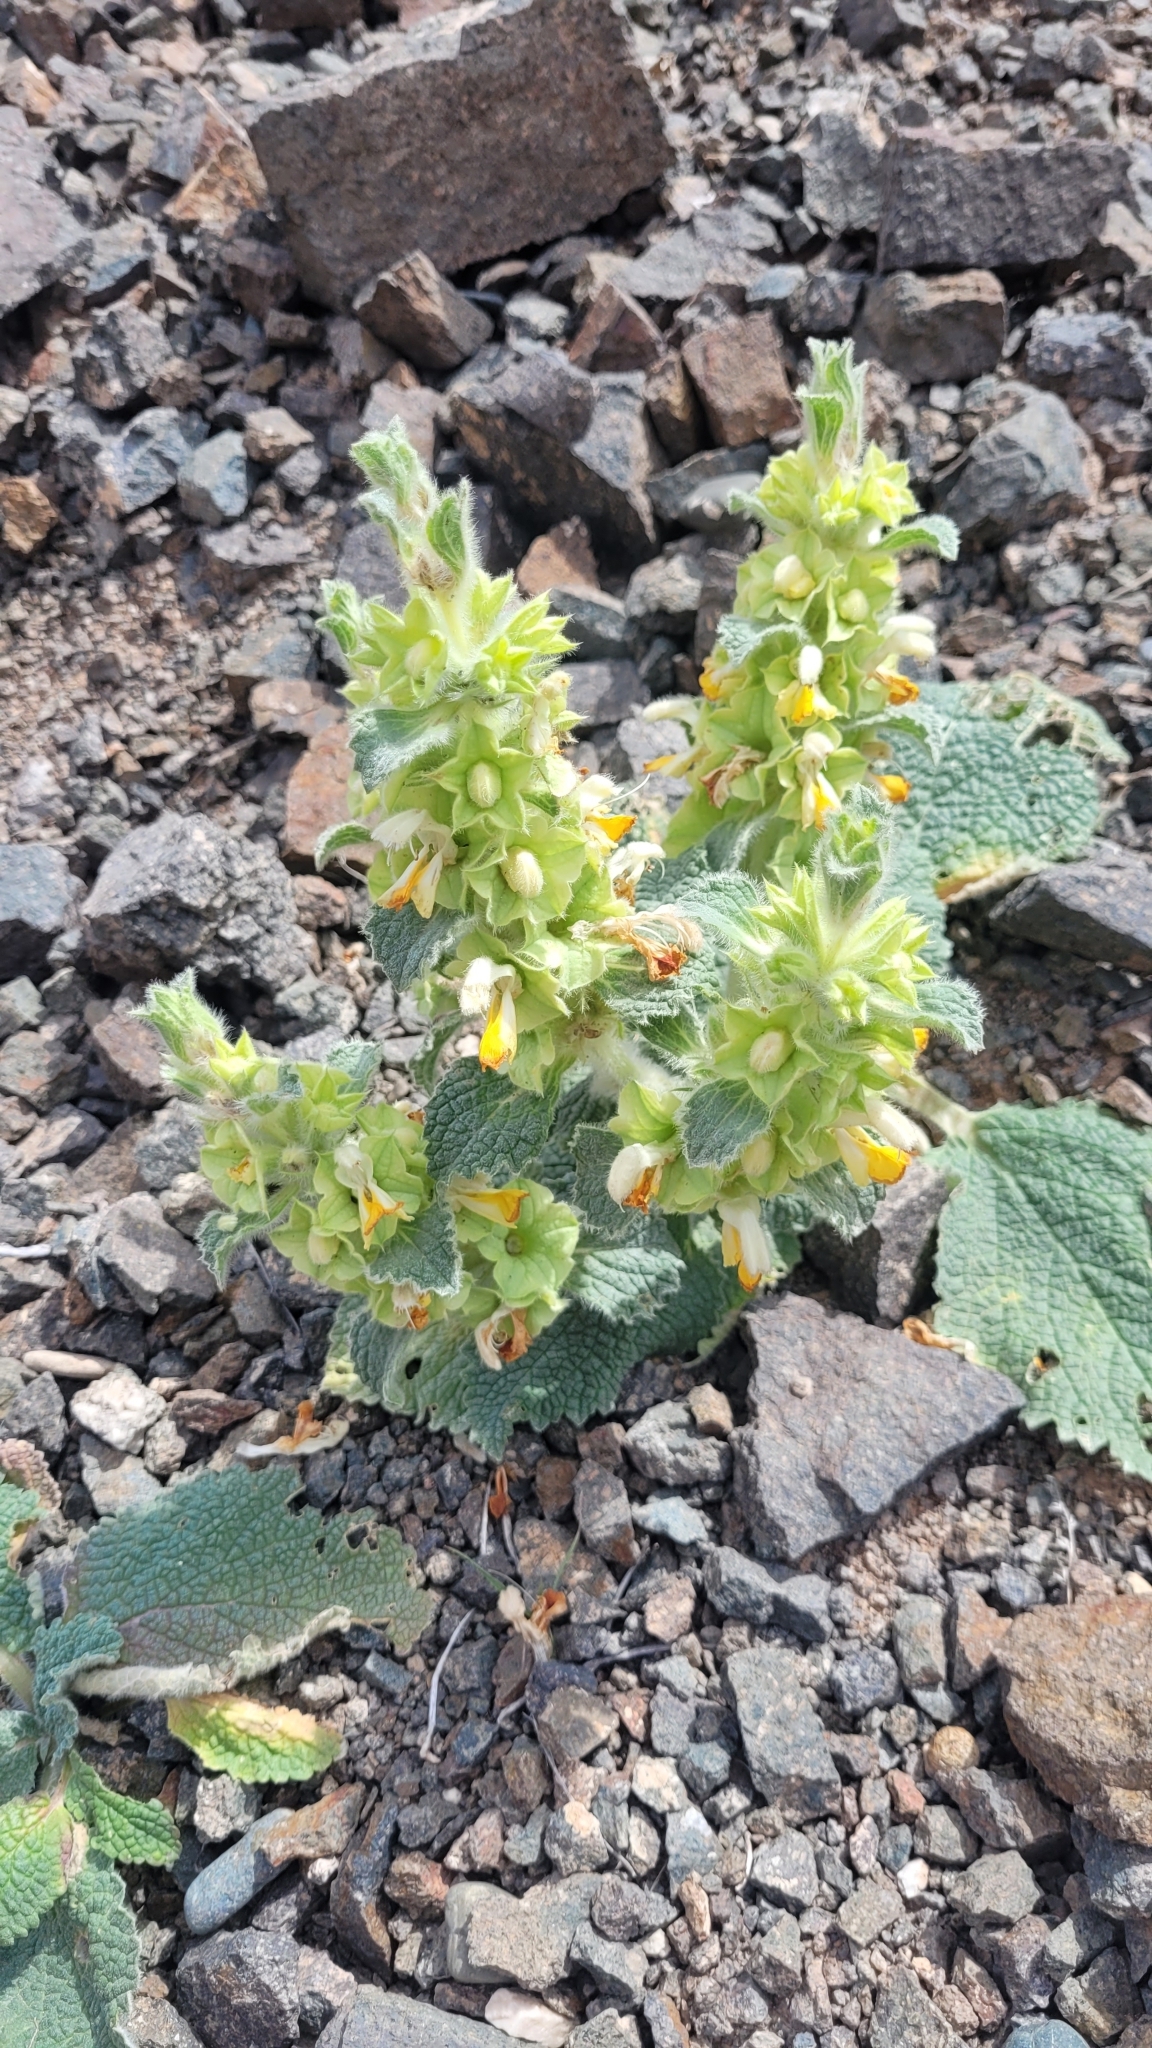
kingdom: Plantae
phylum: Tracheophyta
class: Magnoliopsida
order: Lamiales
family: Lamiaceae
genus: Phlomoides
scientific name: Phlomoides isochila
